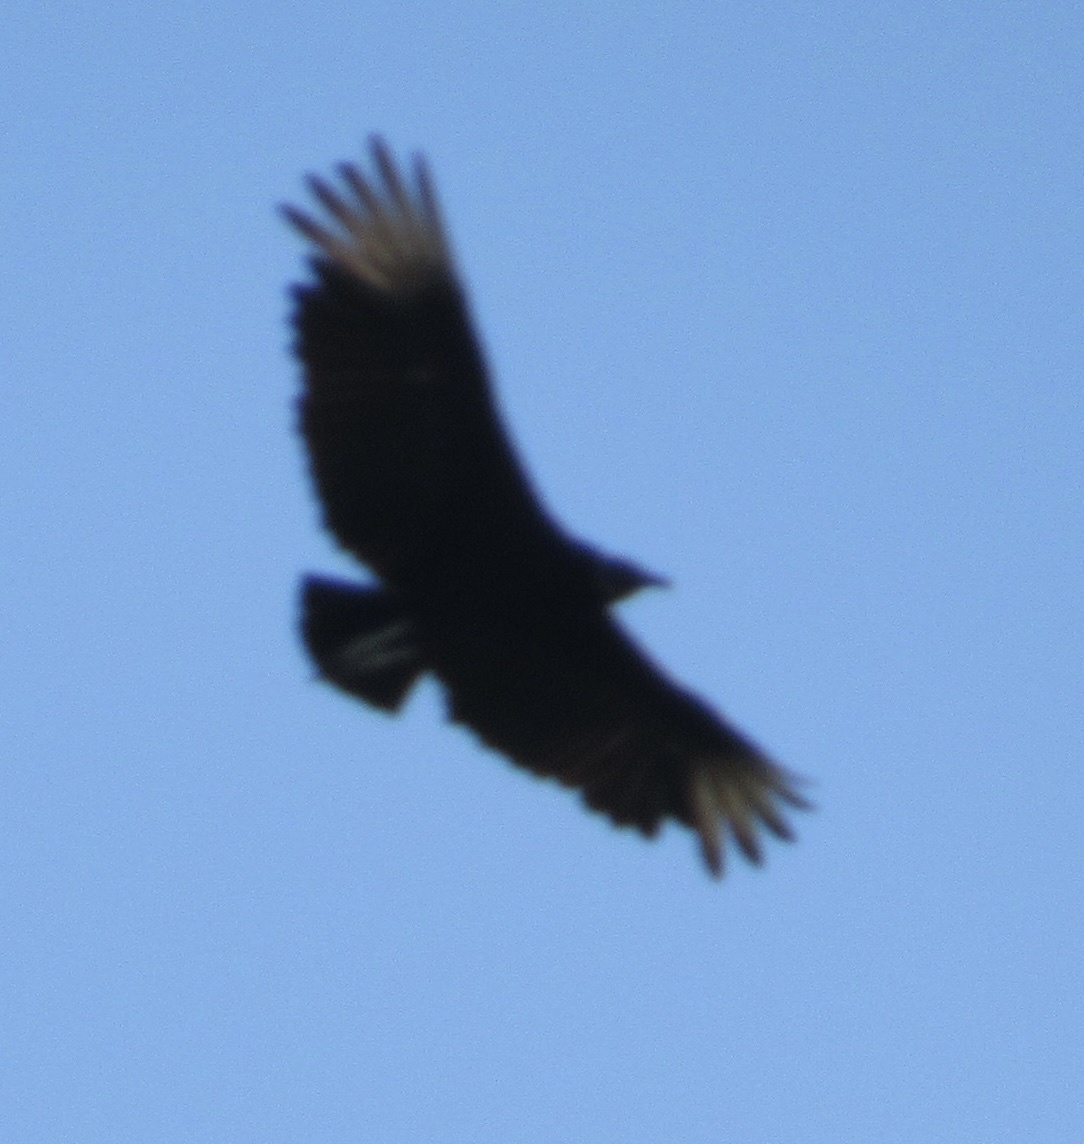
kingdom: Animalia
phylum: Chordata
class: Aves
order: Accipitriformes
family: Cathartidae
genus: Coragyps
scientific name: Coragyps atratus
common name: Black vulture
